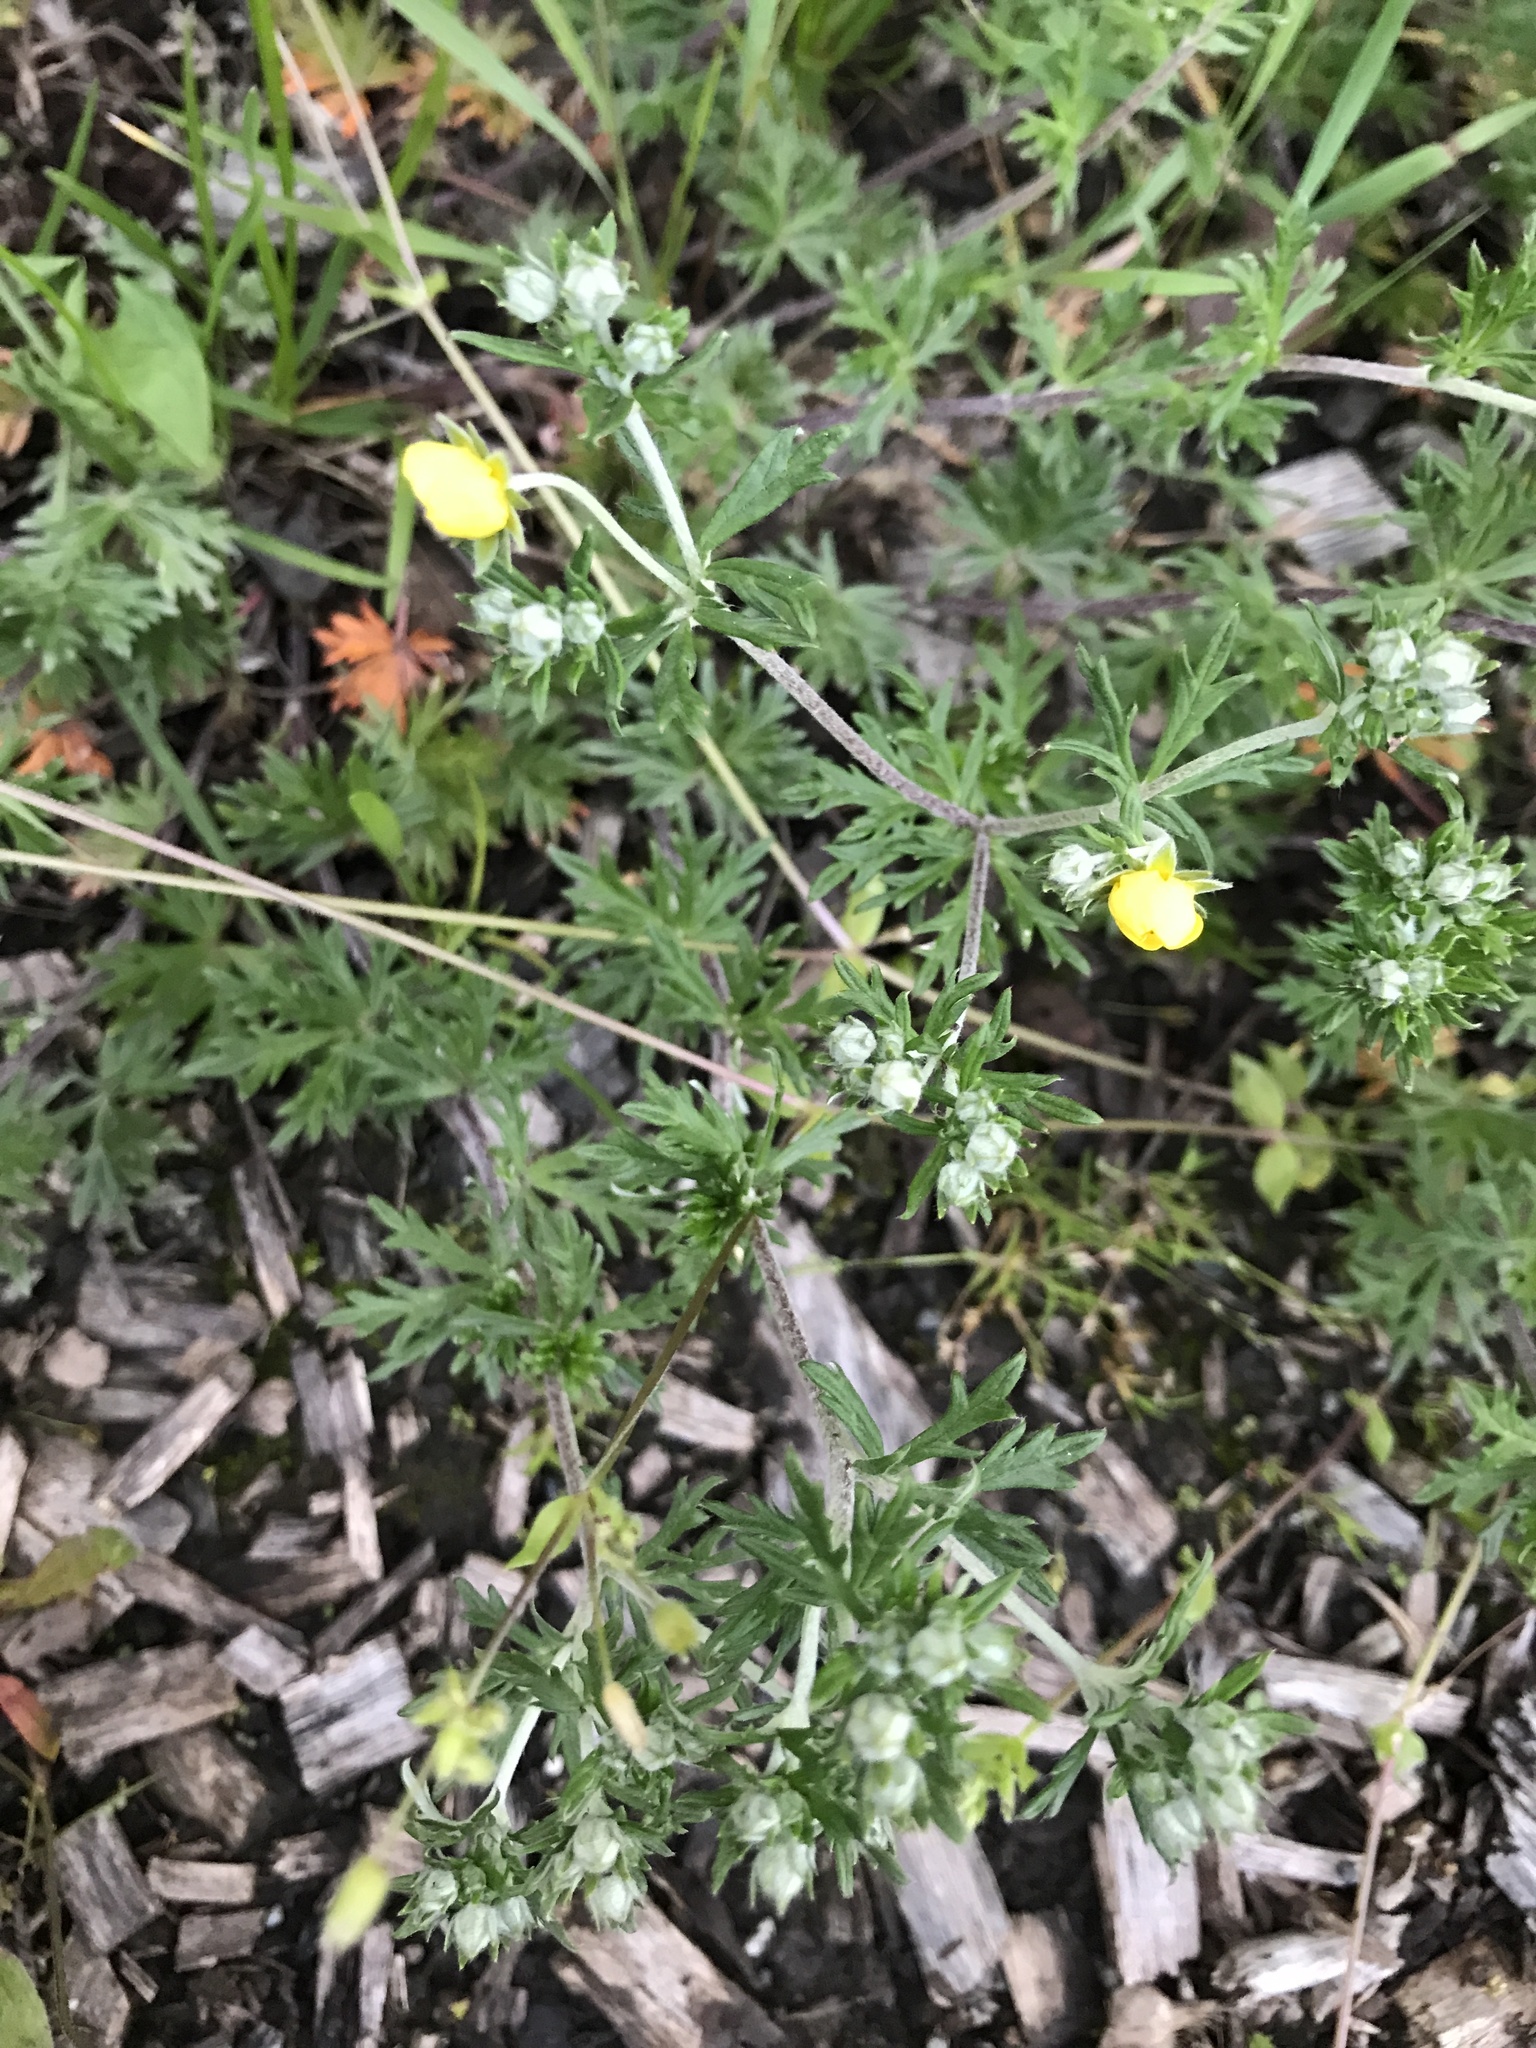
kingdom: Plantae
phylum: Tracheophyta
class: Magnoliopsida
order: Rosales
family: Rosaceae
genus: Potentilla
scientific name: Potentilla argentea
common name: Hoary cinquefoil
